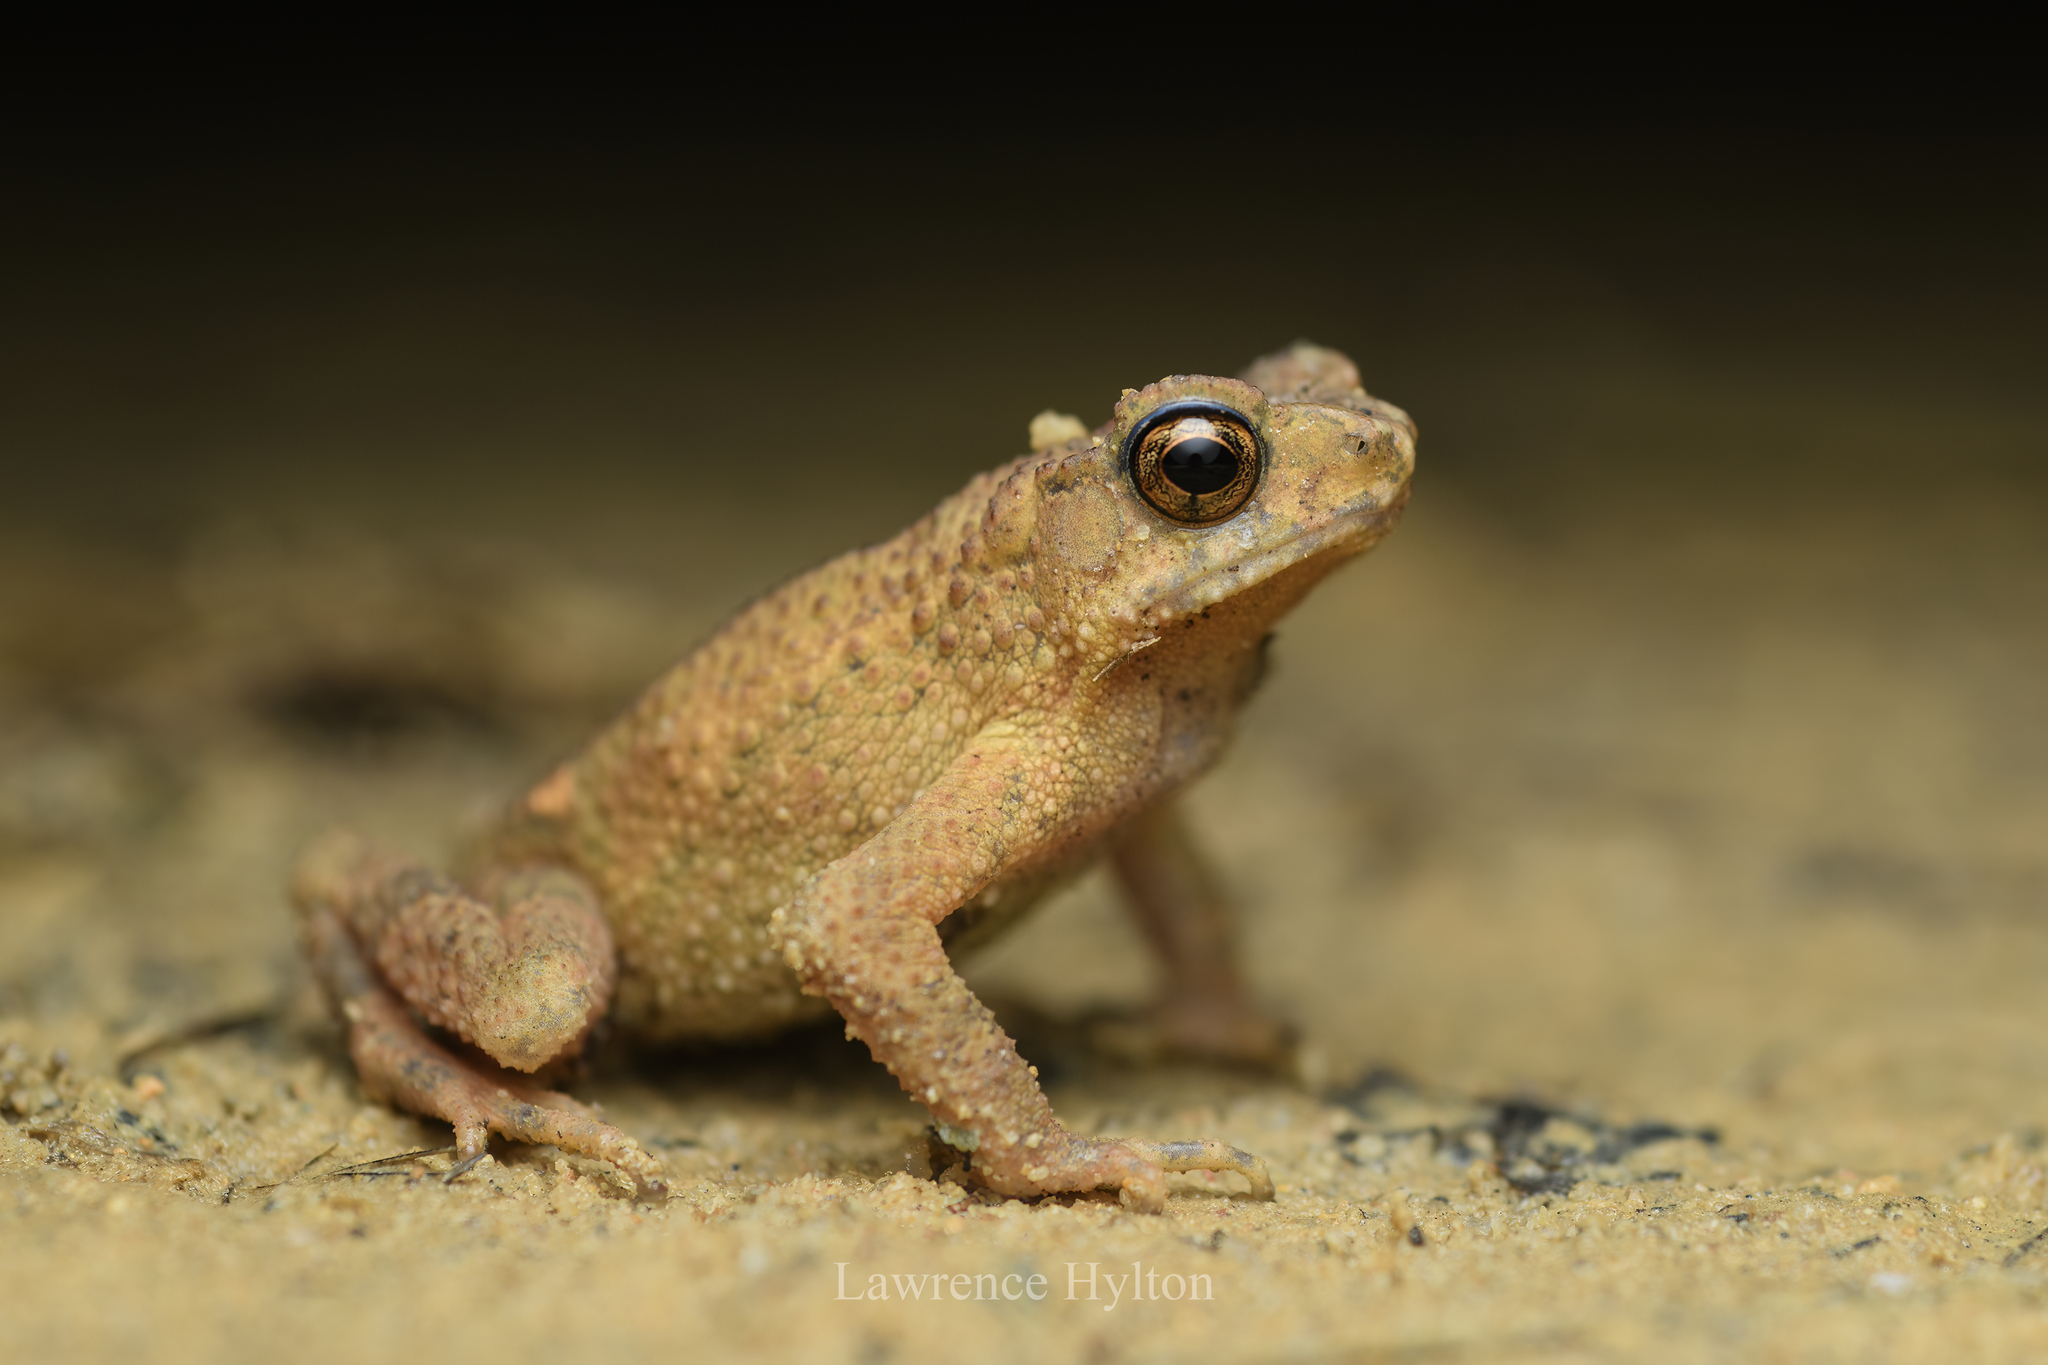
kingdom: Animalia
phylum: Chordata
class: Amphibia
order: Anura
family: Bufonidae
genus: Ingerophrynus
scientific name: Ingerophrynus parvus
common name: Dwarf lesser stream toad
